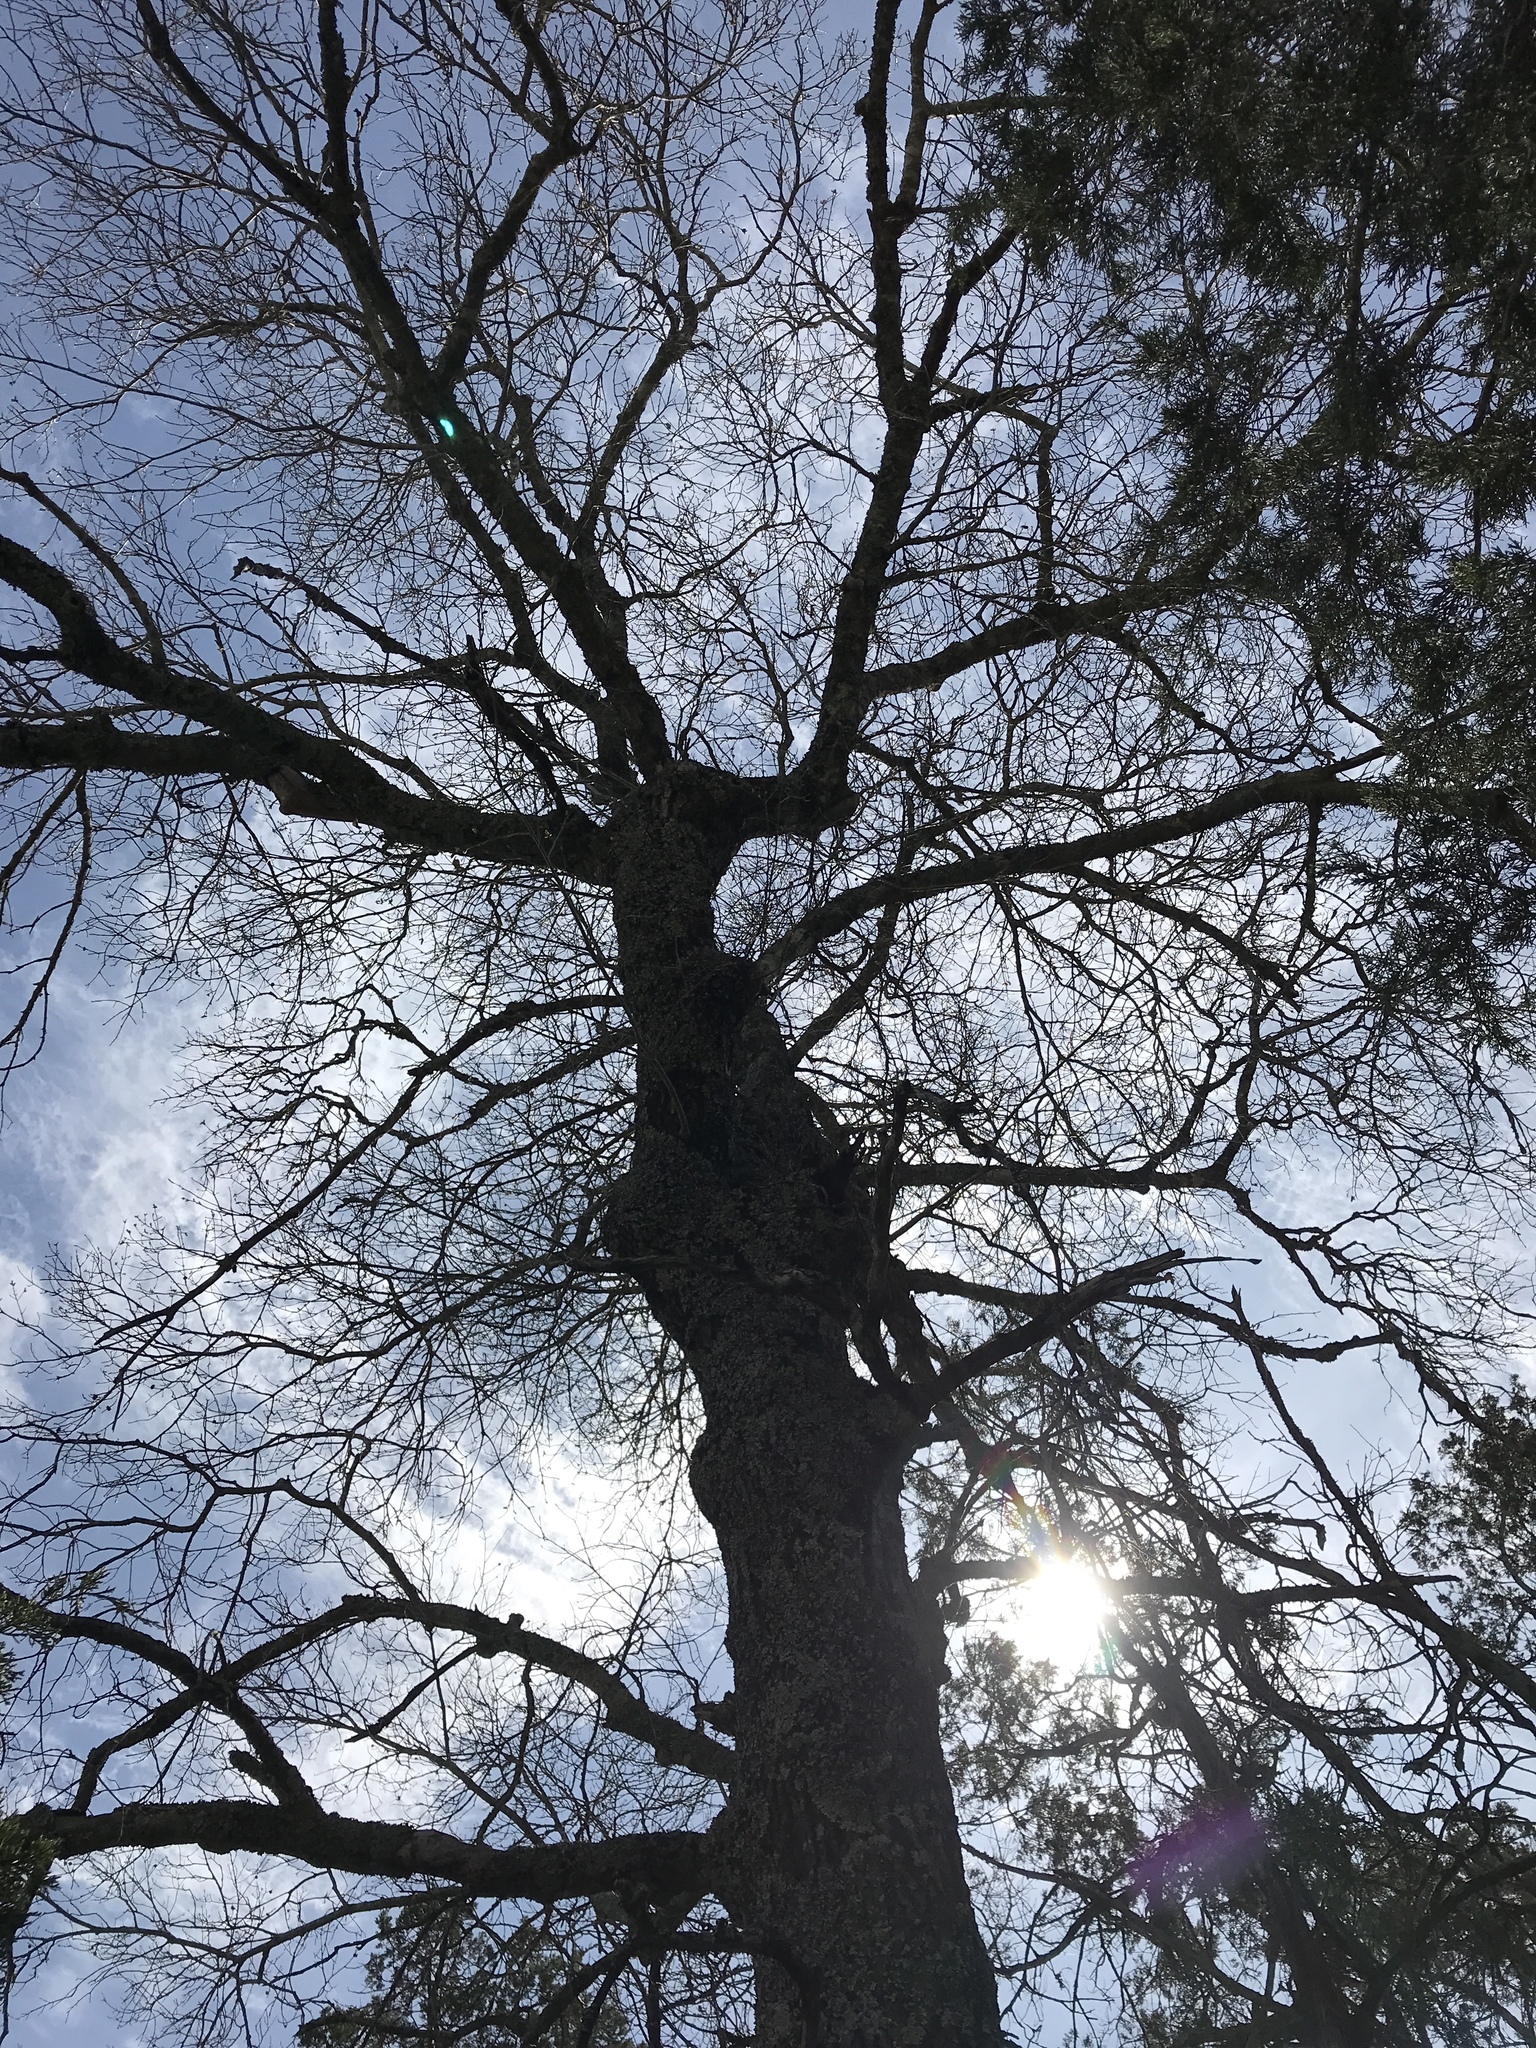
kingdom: Plantae
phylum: Tracheophyta
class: Magnoliopsida
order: Fagales
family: Fagaceae
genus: Quercus
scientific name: Quercus buckleyi
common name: Buckley oak
